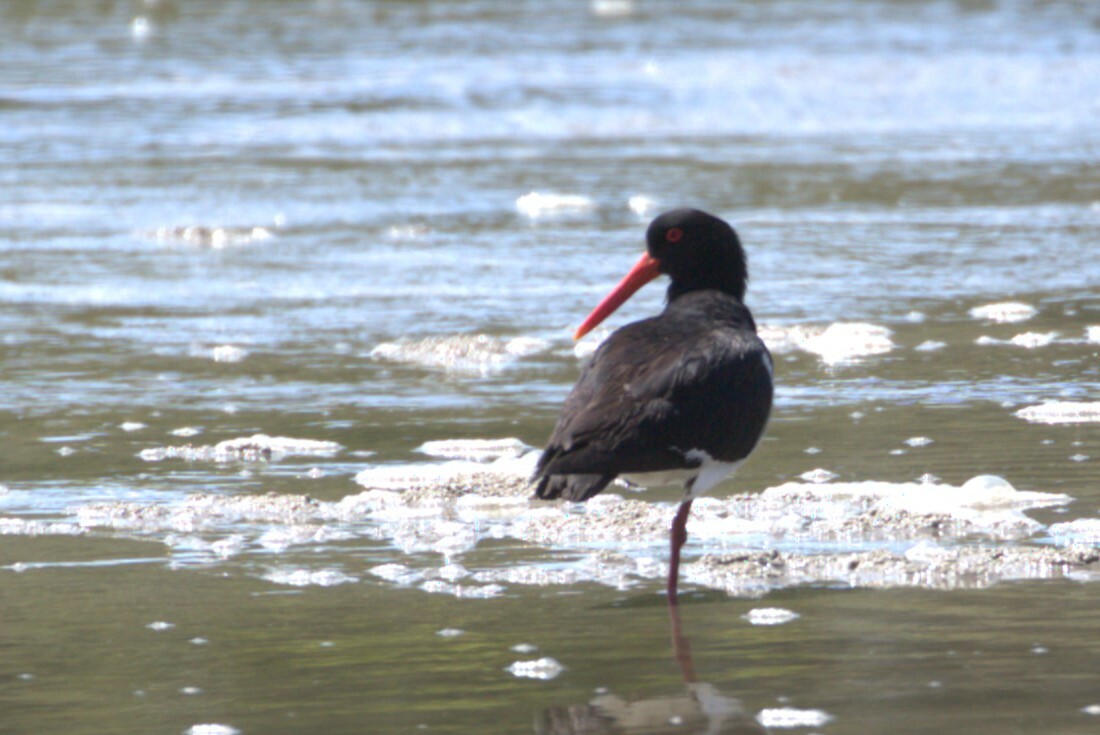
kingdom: Animalia
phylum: Chordata
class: Aves
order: Charadriiformes
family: Haematopodidae
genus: Haematopus
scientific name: Haematopus longirostris
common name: Pied oystercatcher
